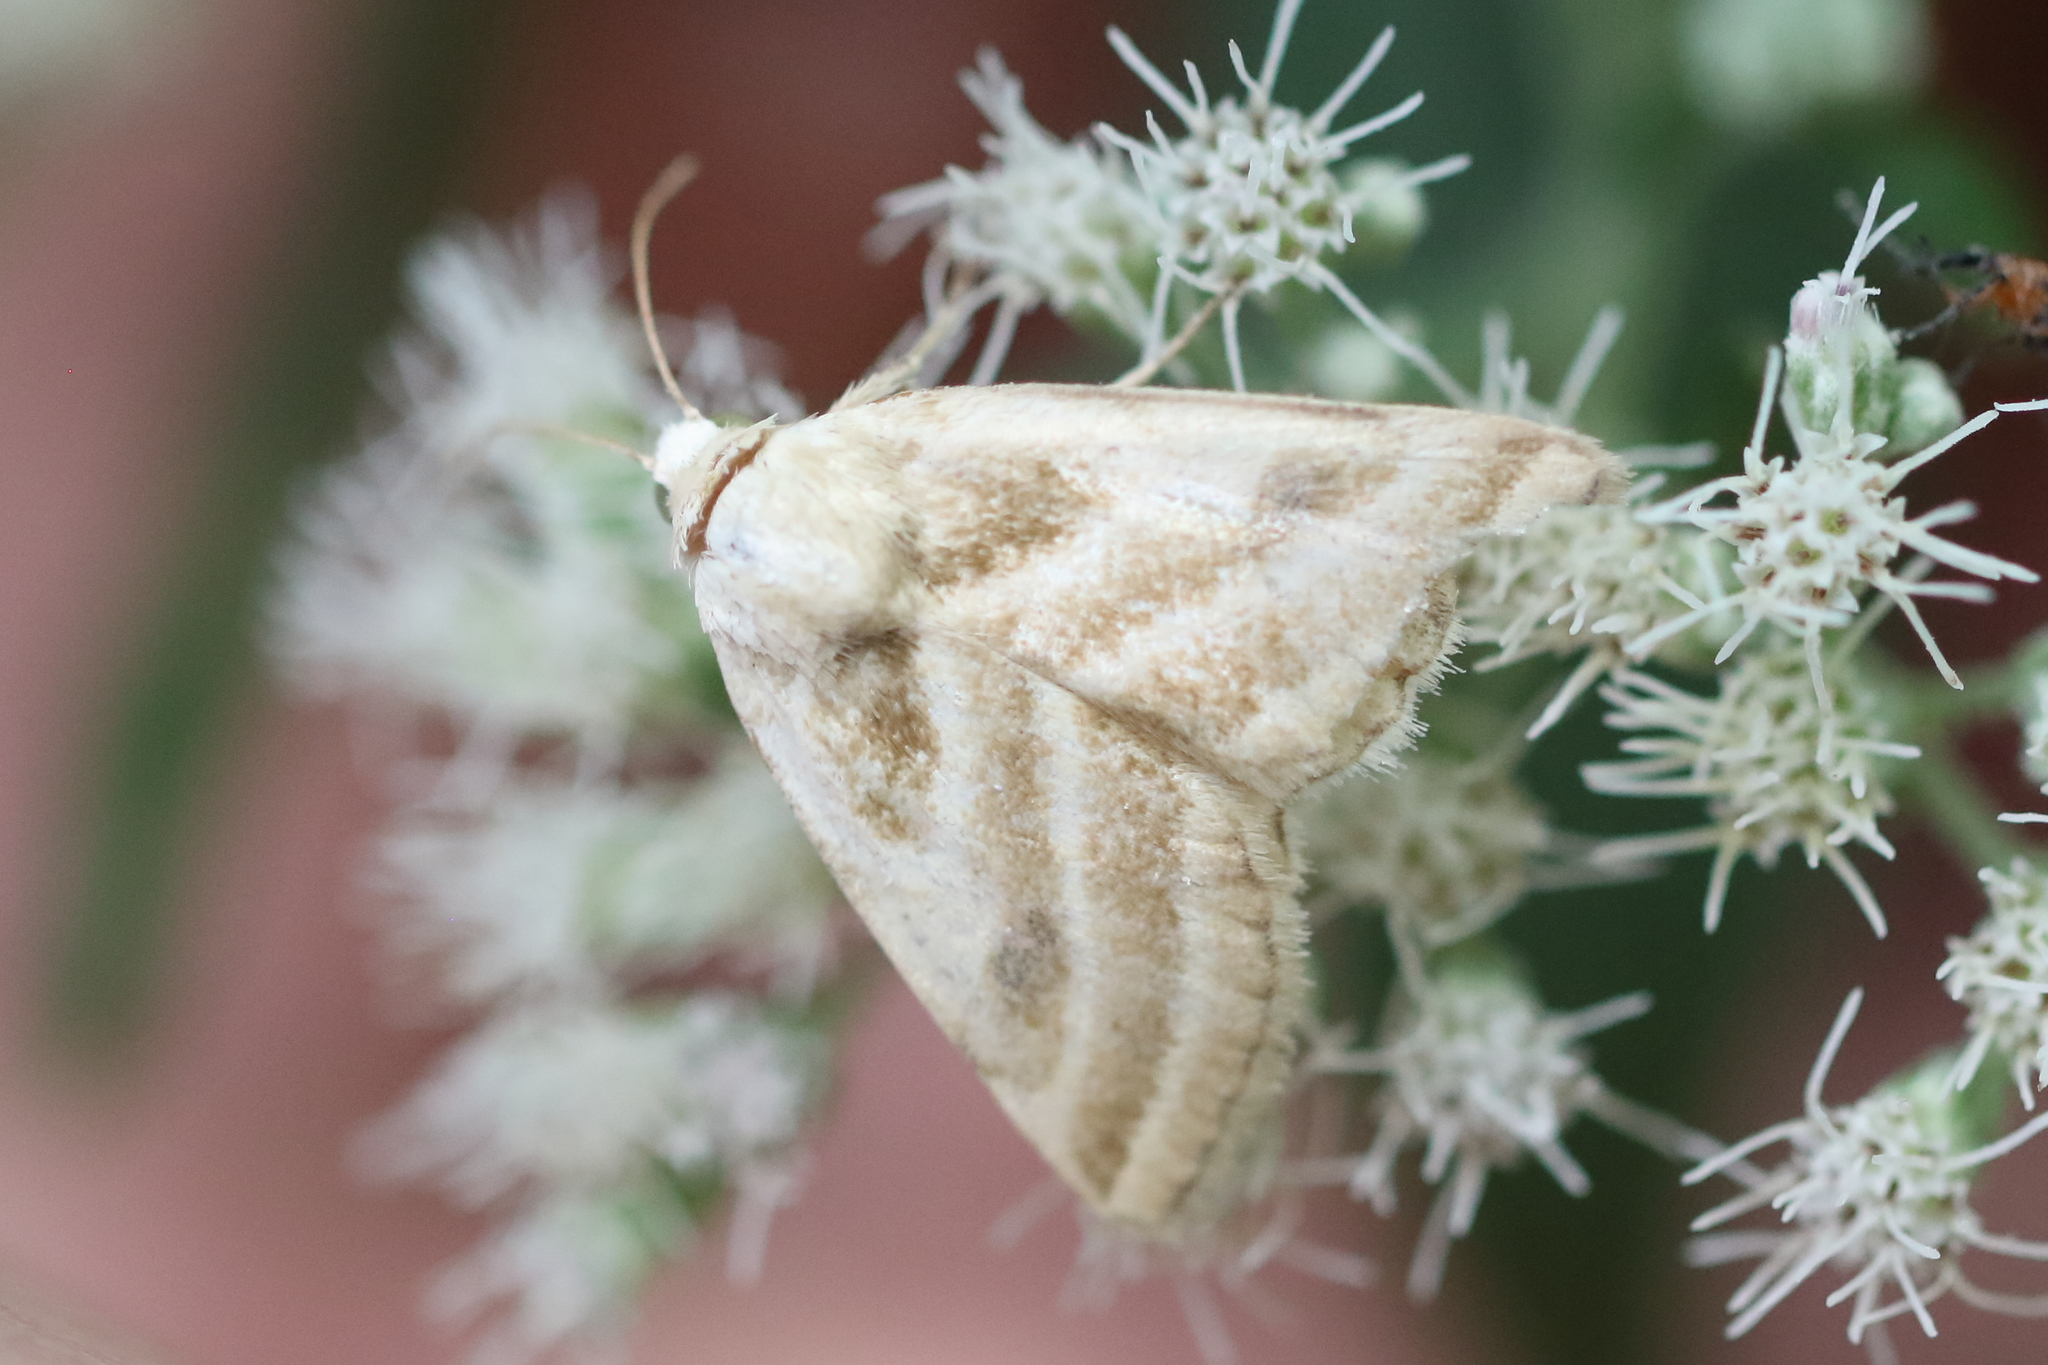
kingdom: Animalia
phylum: Arthropoda
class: Insecta
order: Lepidoptera
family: Noctuidae
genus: Schinia
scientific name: Schinia trifascia
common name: Three-lined flower moth
